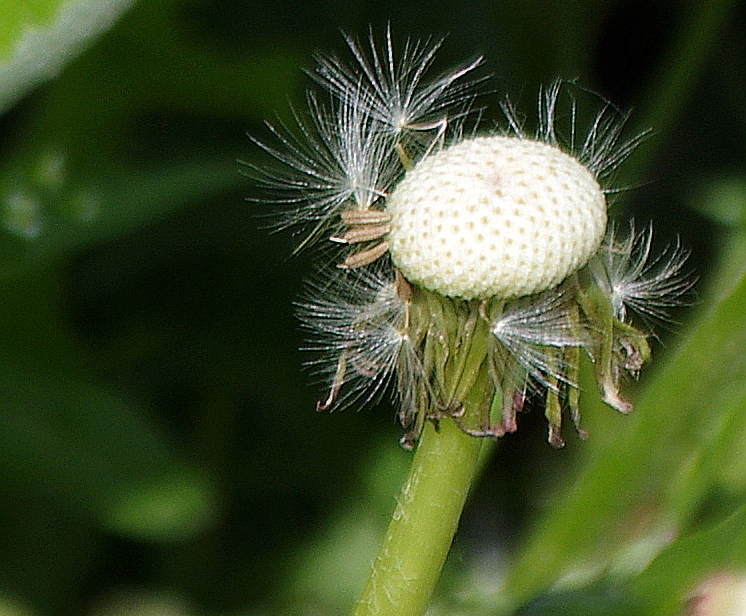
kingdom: Plantae
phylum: Tracheophyta
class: Magnoliopsida
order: Asterales
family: Asteraceae
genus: Taraxacum
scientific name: Taraxacum officinale
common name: Common dandelion
